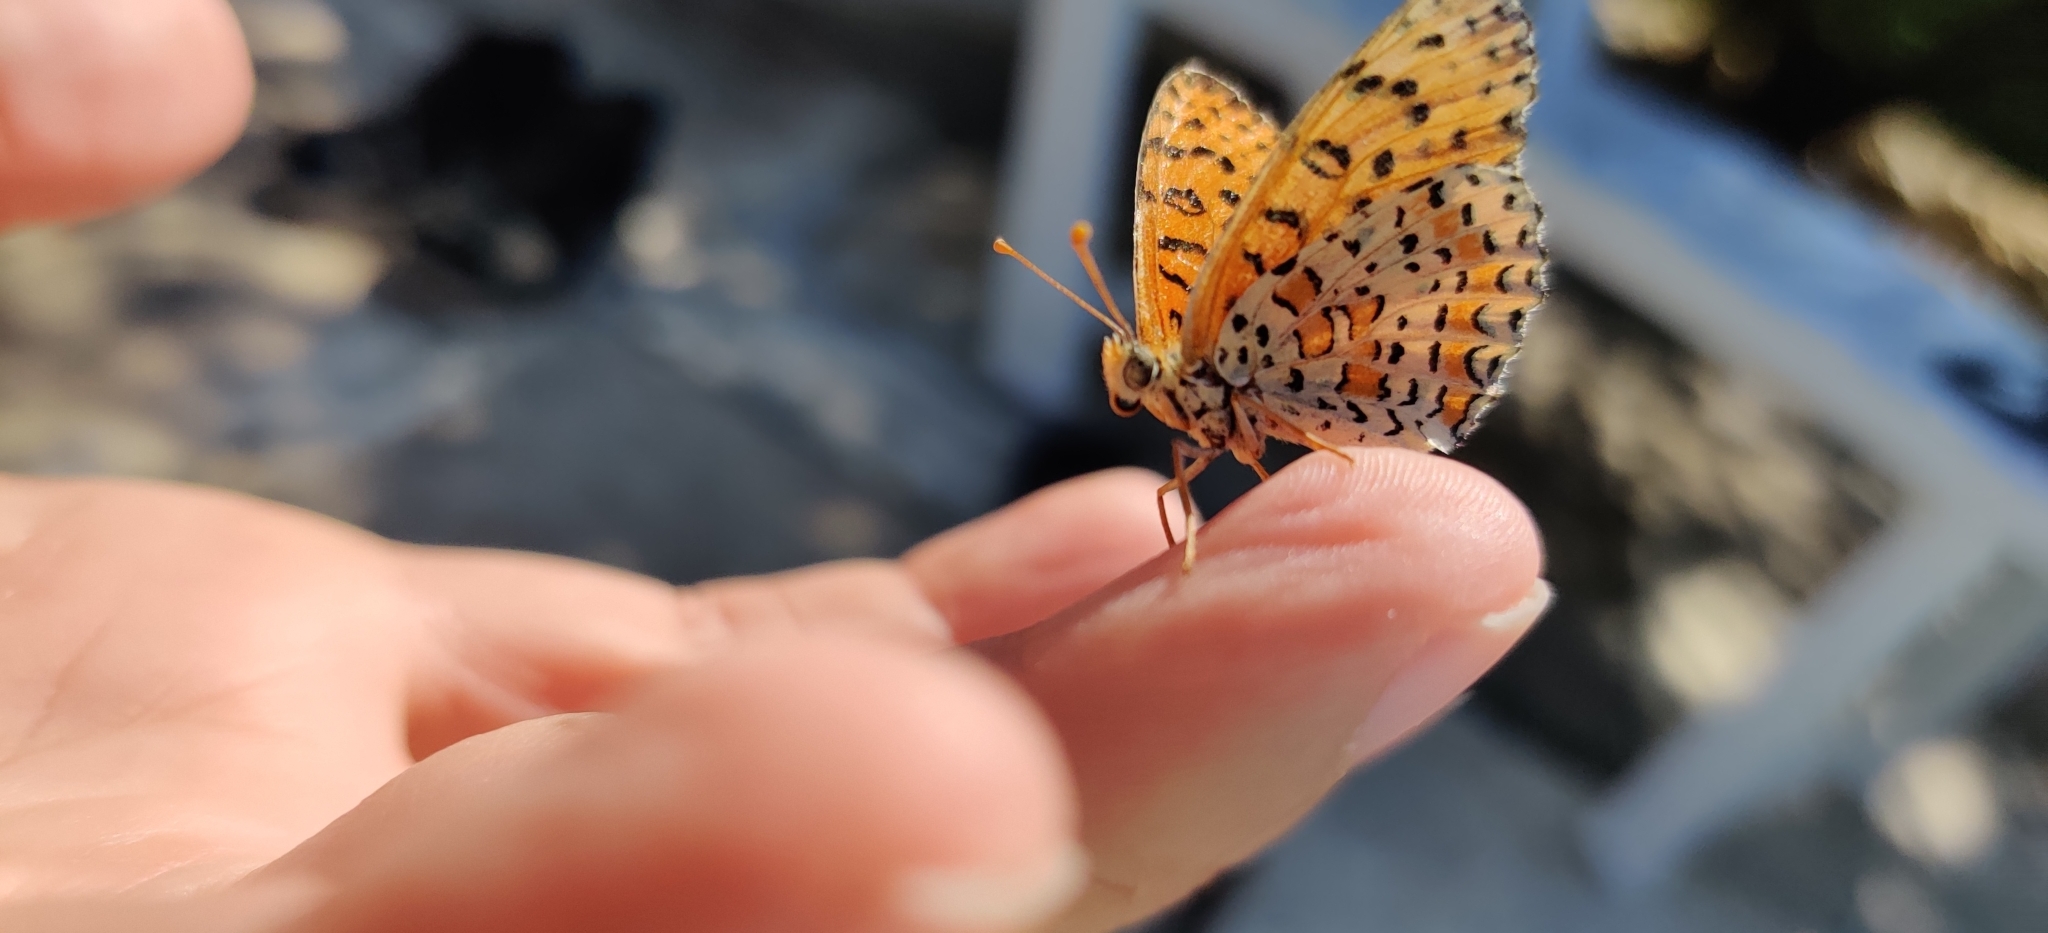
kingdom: Animalia
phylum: Arthropoda
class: Insecta
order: Lepidoptera
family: Nymphalidae
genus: Melitaea
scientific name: Melitaea didyma
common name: Spotted fritillary
